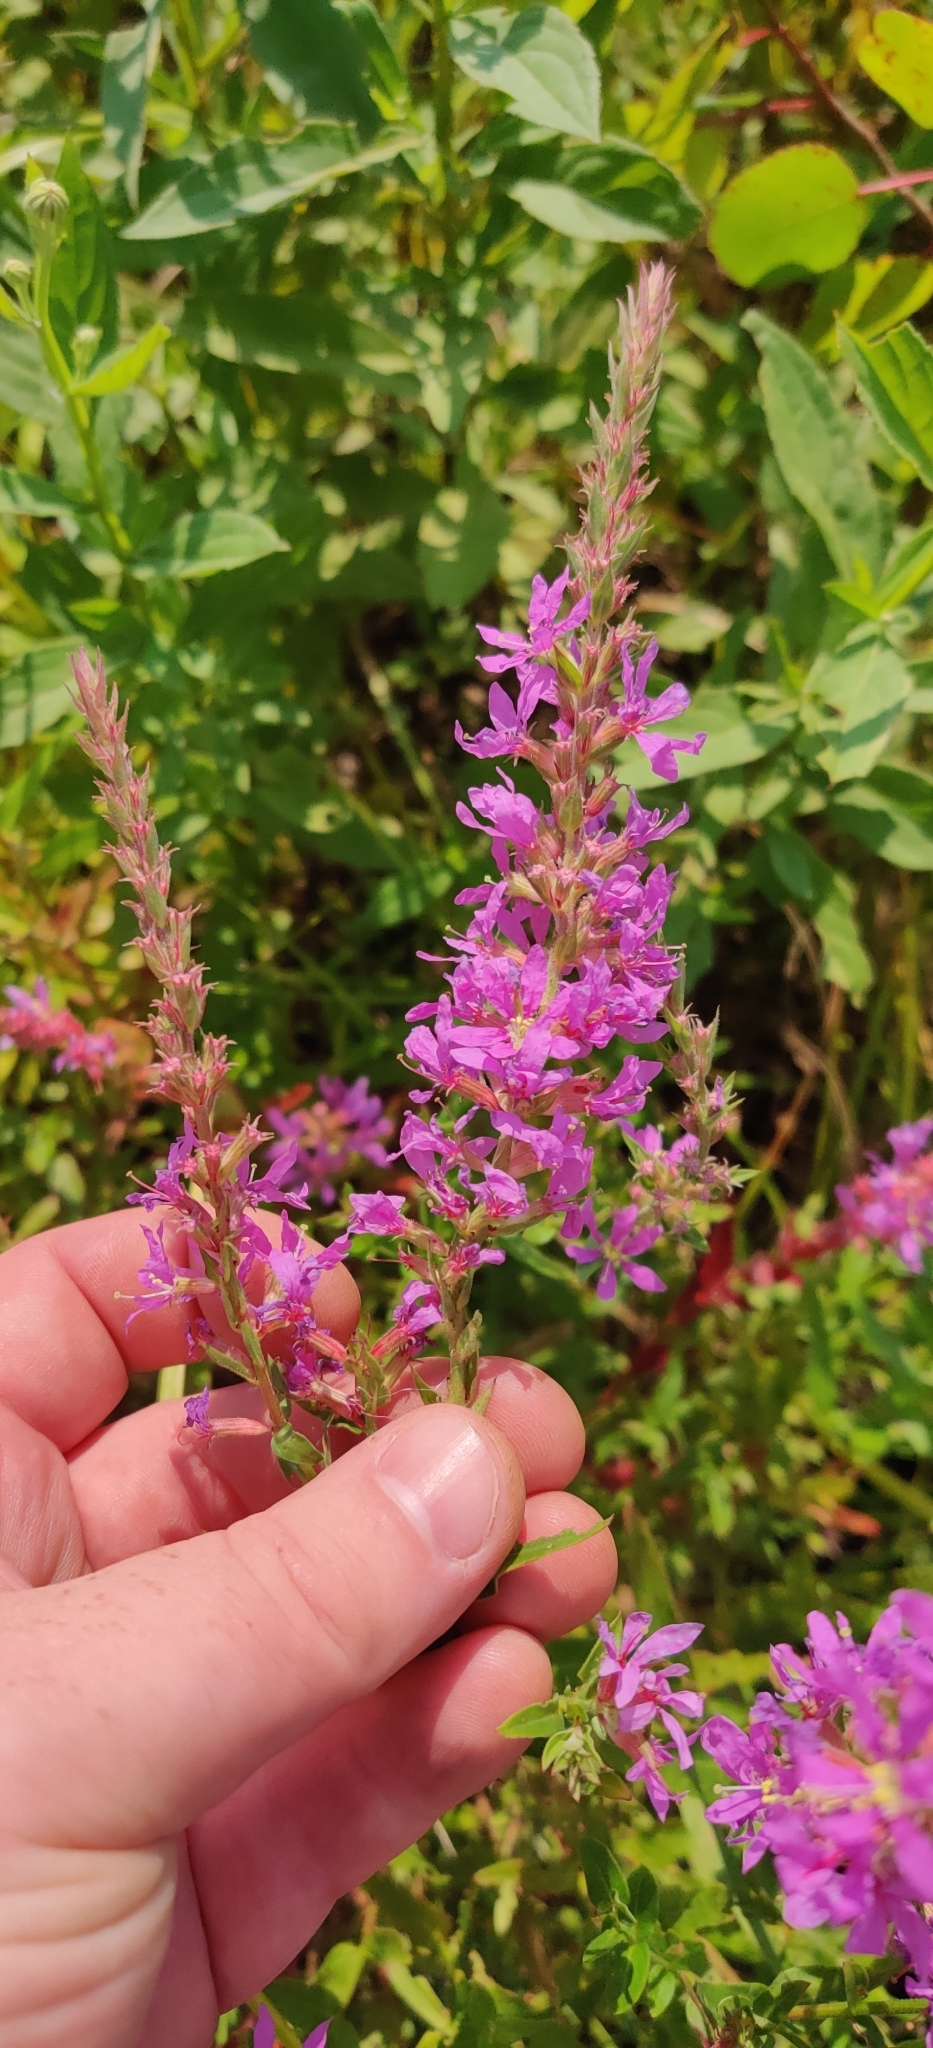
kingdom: Plantae
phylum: Tracheophyta
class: Magnoliopsida
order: Myrtales
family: Lythraceae
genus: Lythrum
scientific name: Lythrum salicaria
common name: Purple loosestrife
